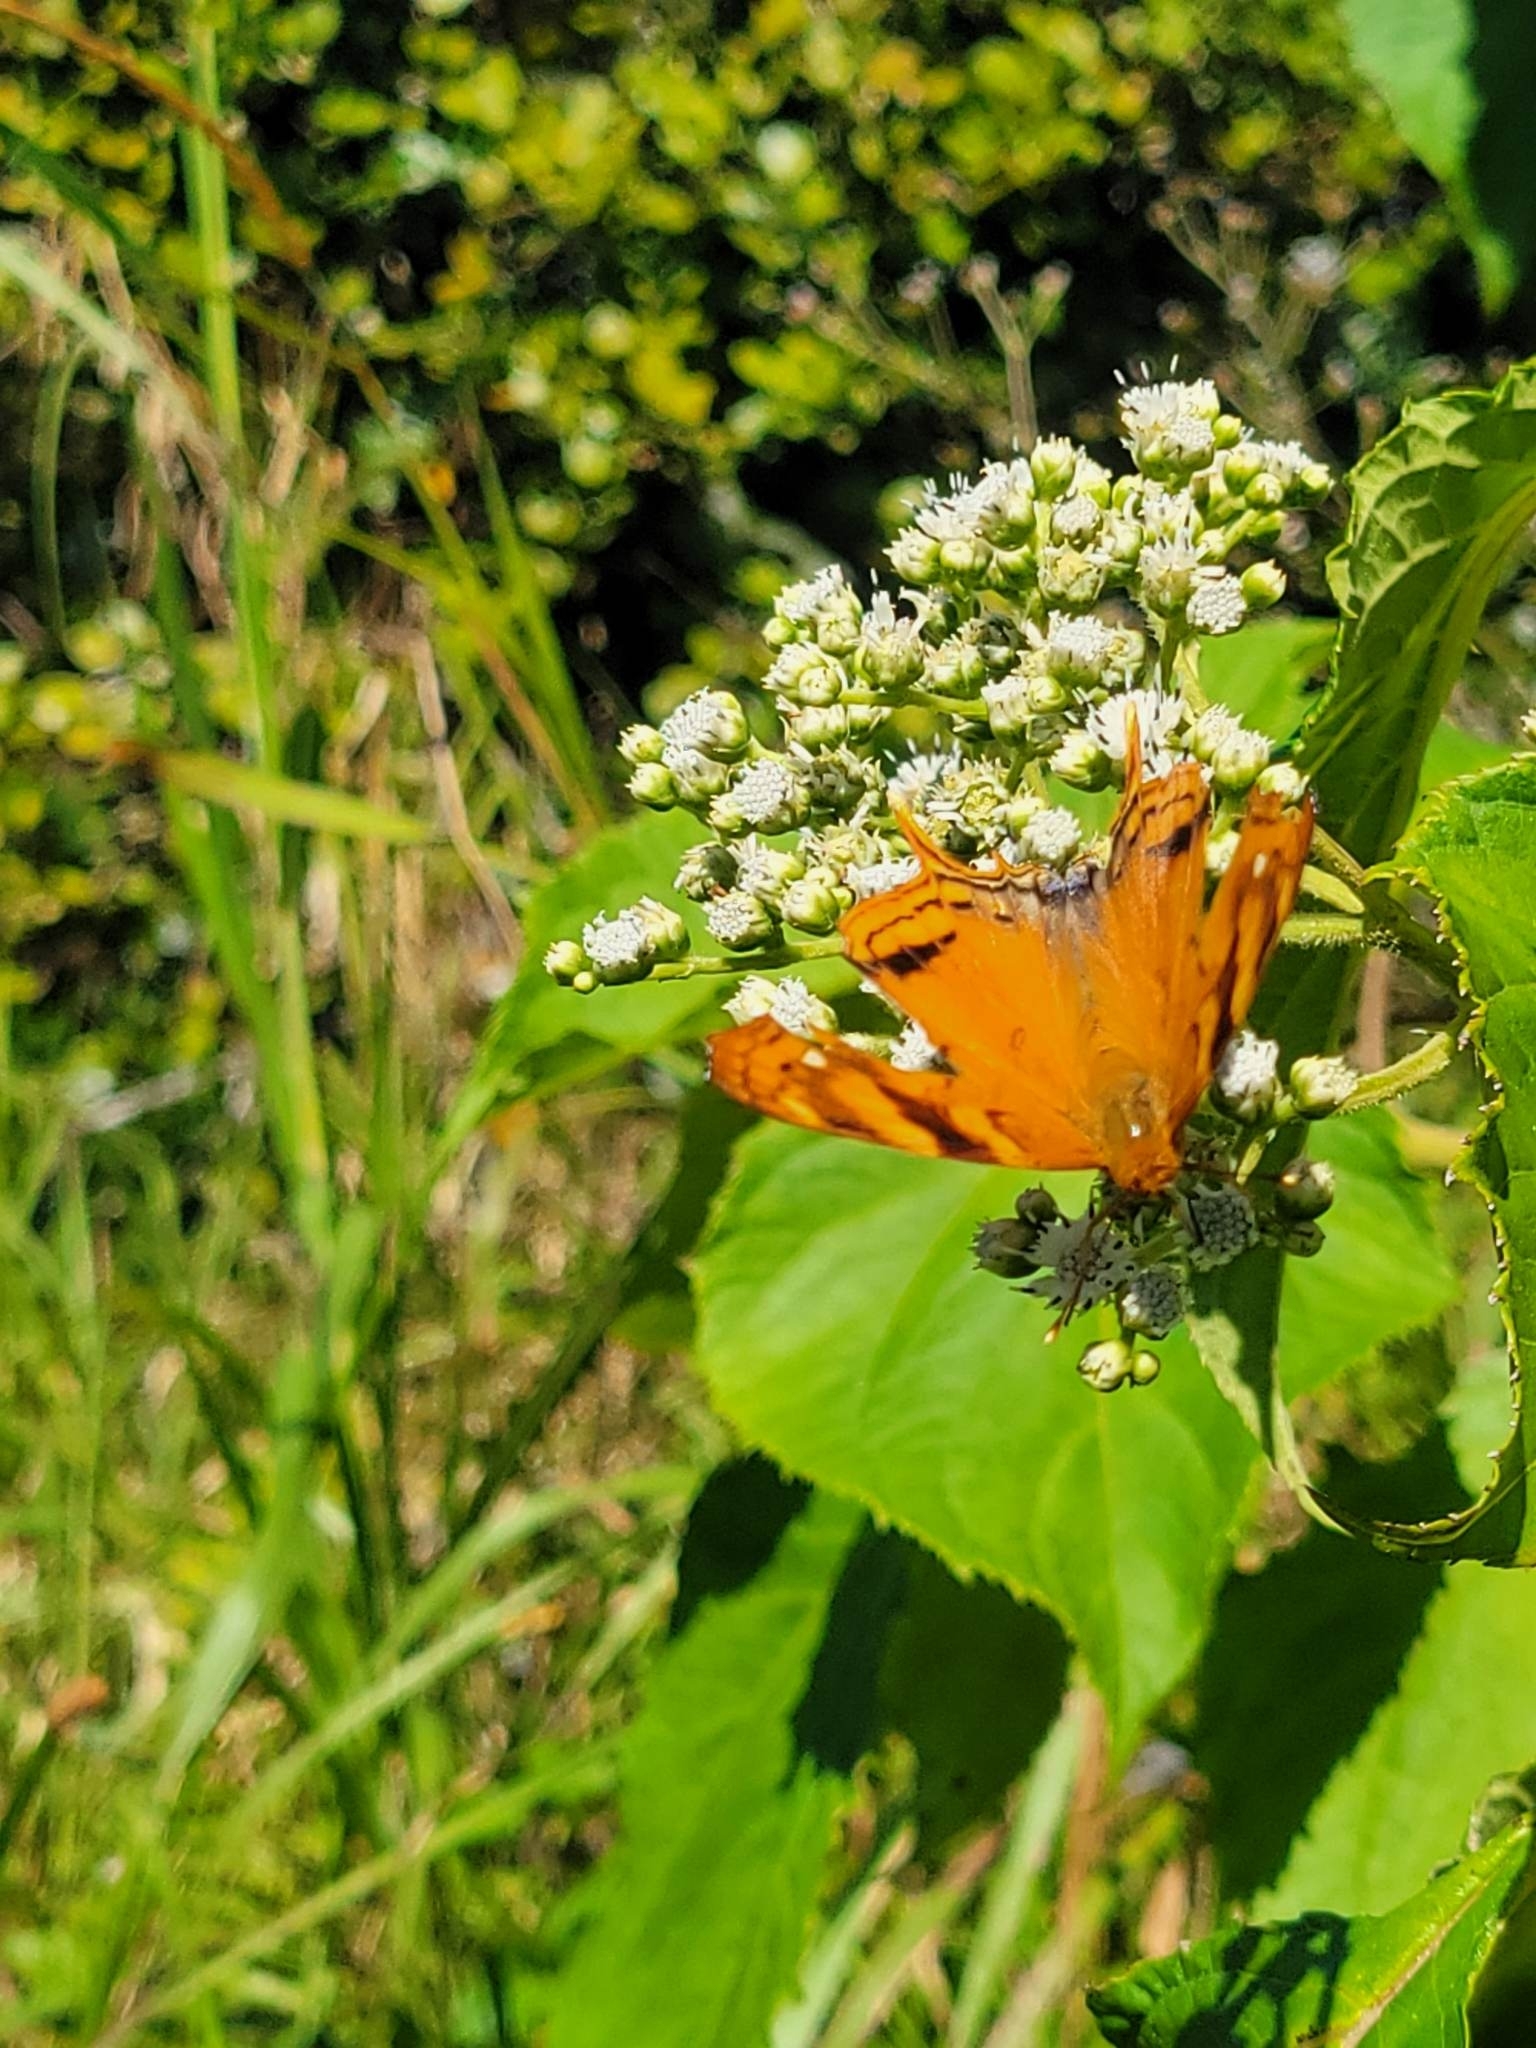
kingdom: Animalia
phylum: Arthropoda
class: Insecta
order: Lepidoptera
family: Nymphalidae
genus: Hypanartia
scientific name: Hypanartia paullus
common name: Antillean mapwing
